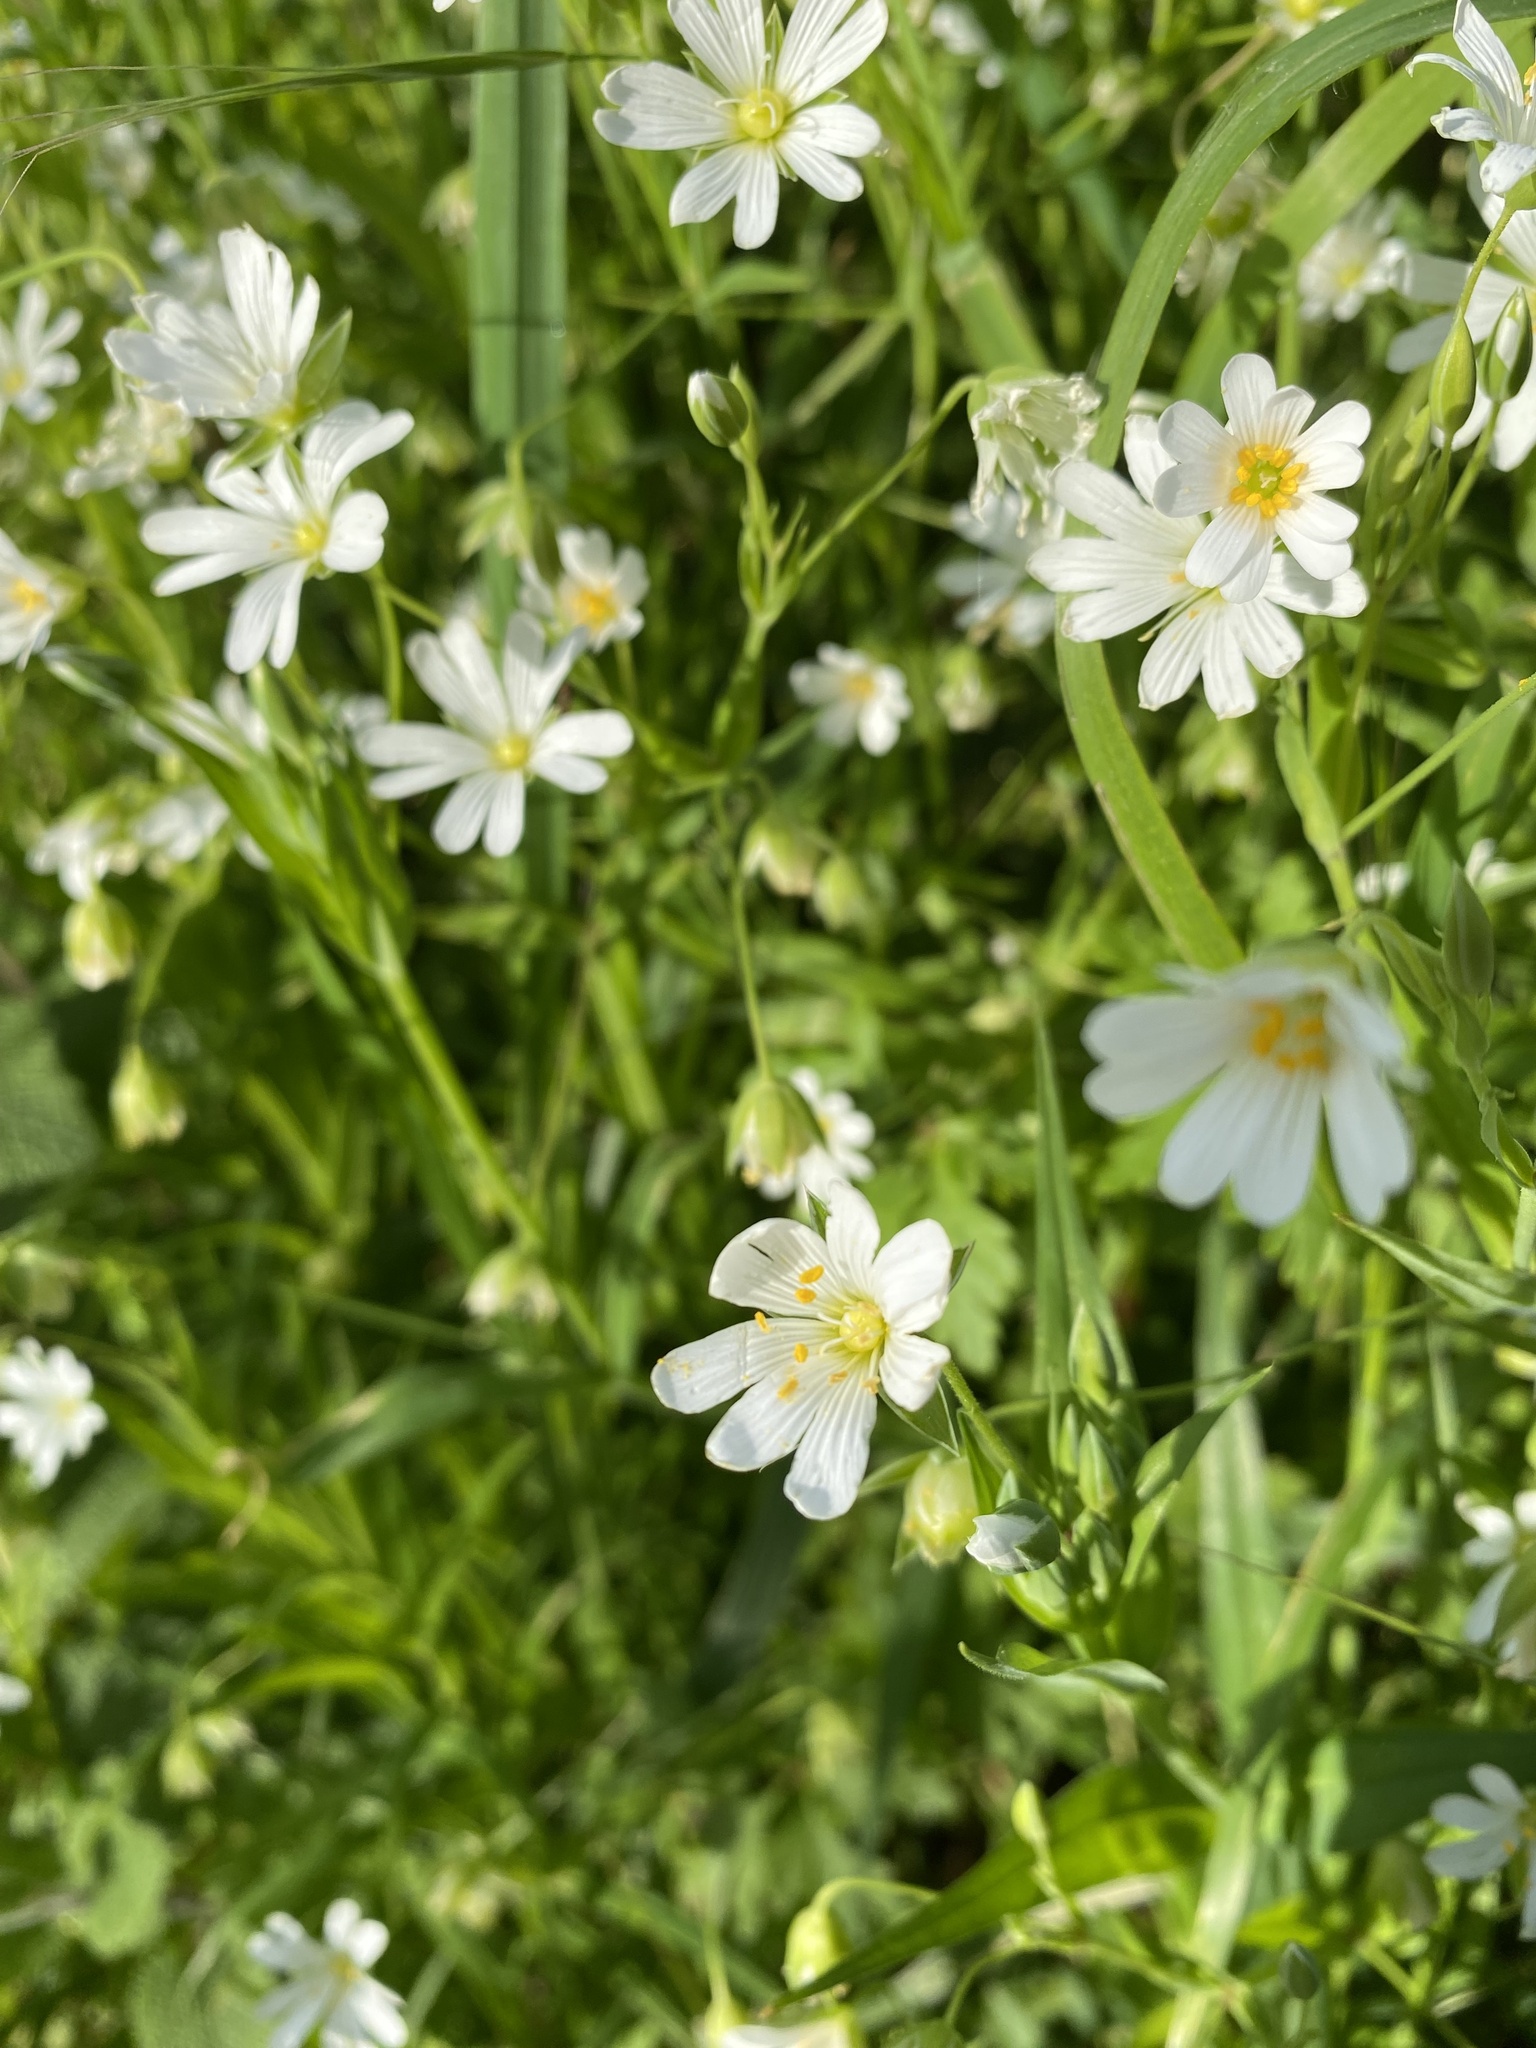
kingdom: Plantae
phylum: Tracheophyta
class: Magnoliopsida
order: Caryophyllales
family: Caryophyllaceae
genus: Rabelera
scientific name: Rabelera holostea
